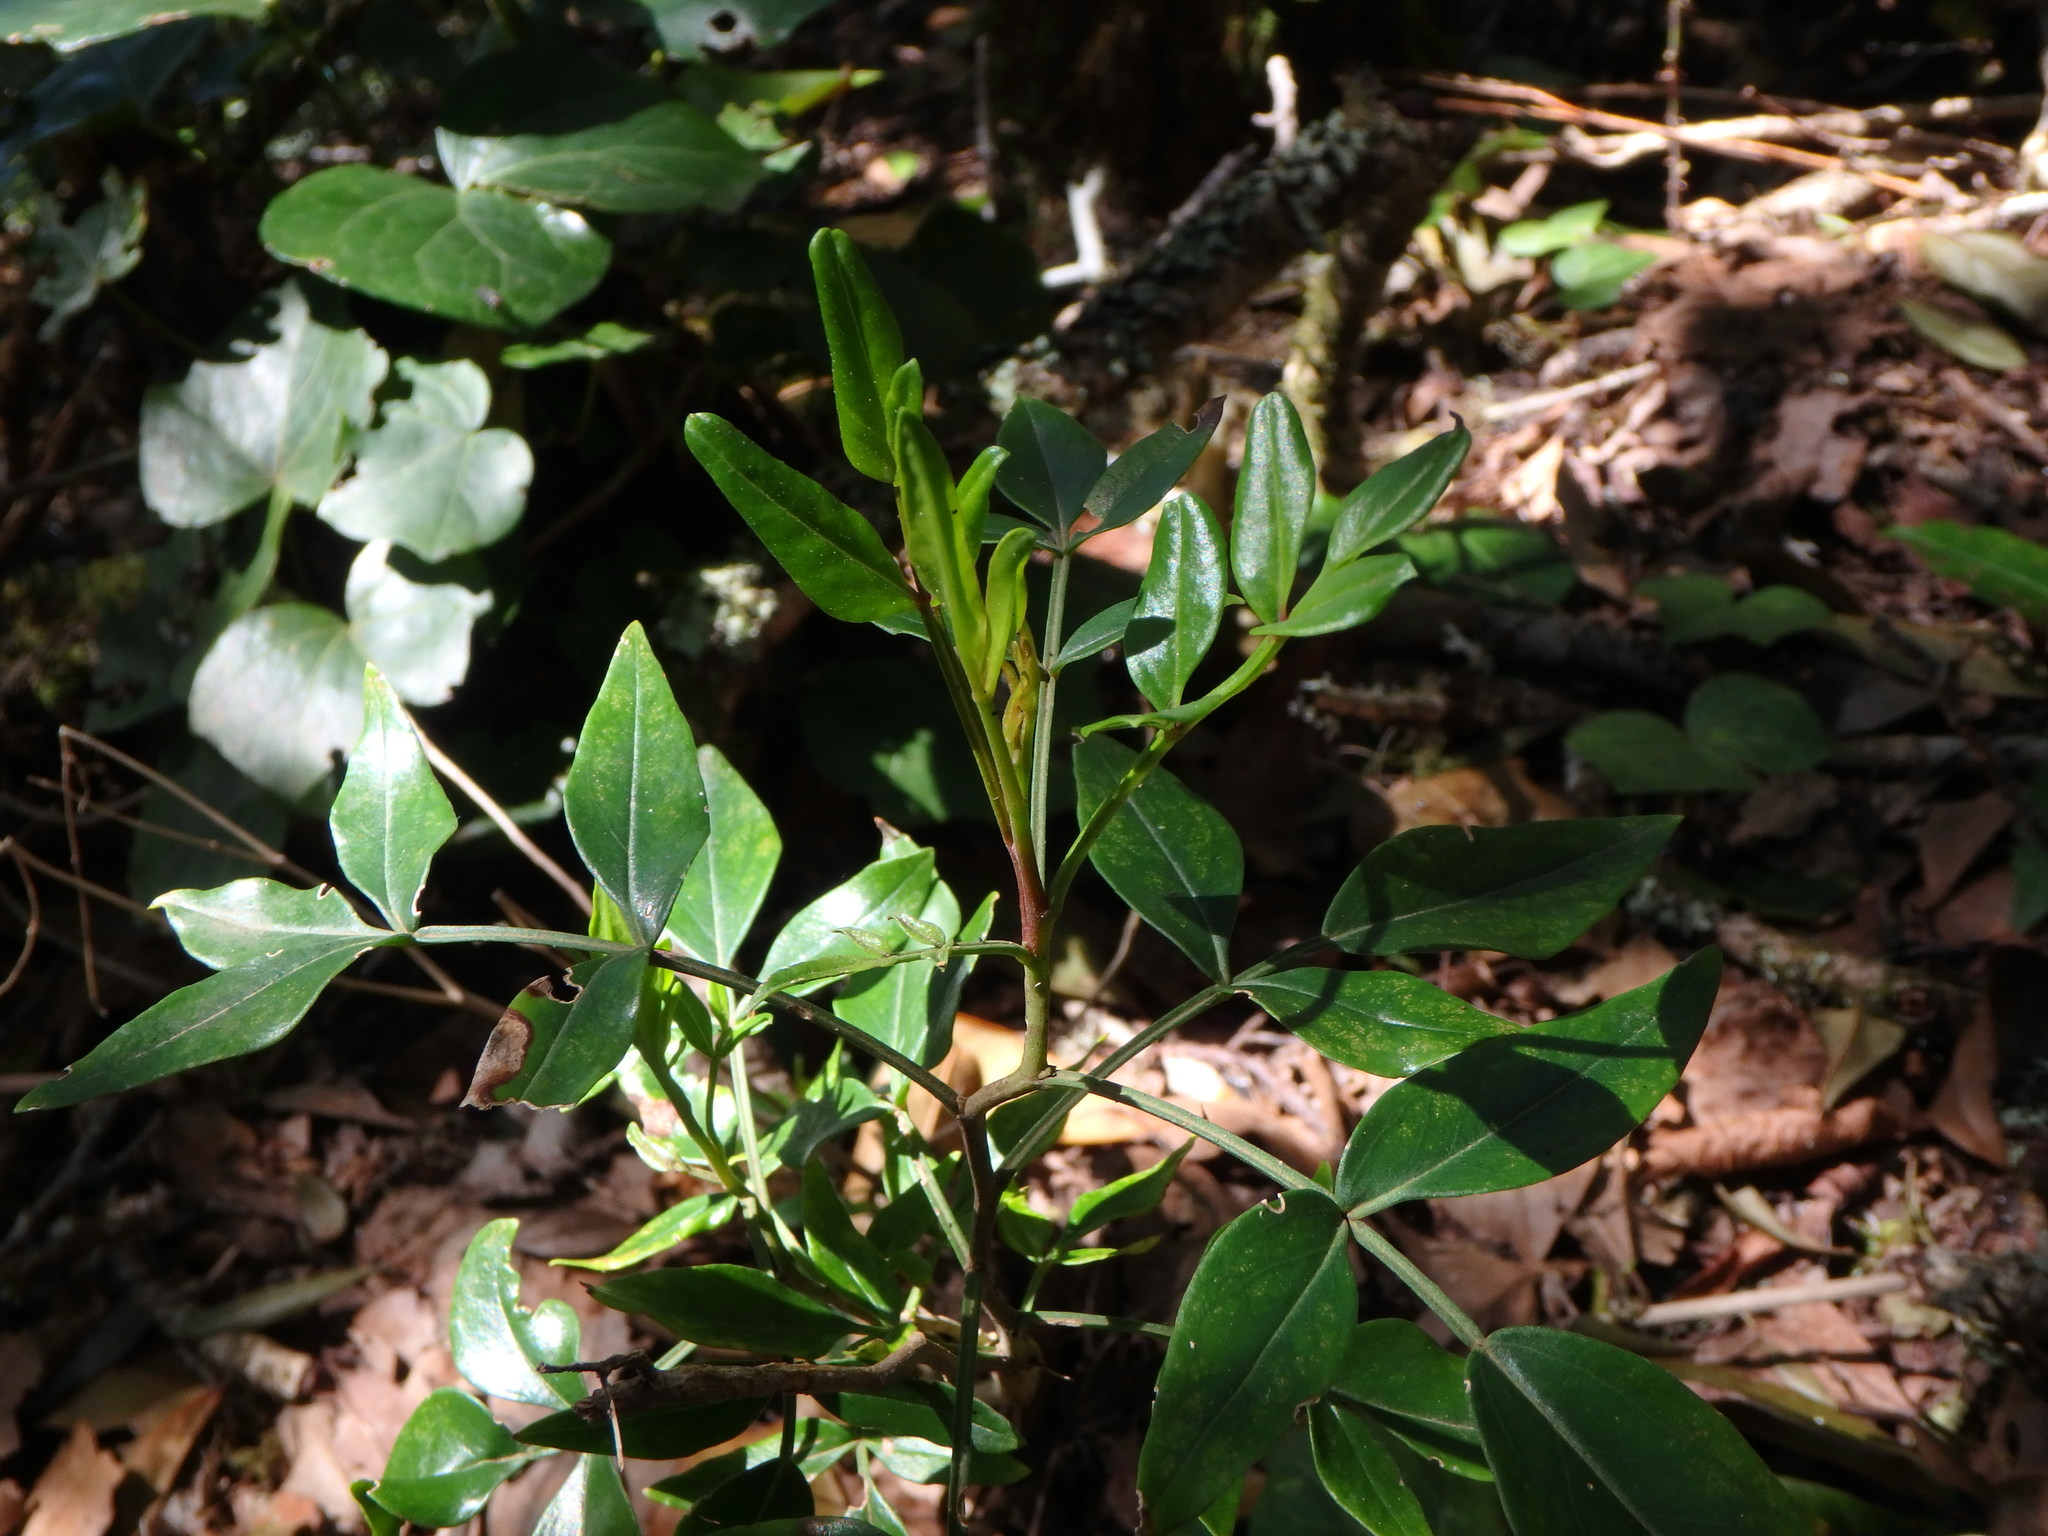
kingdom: Plantae
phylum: Tracheophyta
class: Magnoliopsida
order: Lamiales
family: Oleaceae
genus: Chrysojasminum
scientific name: Chrysojasminum odoratissimum
